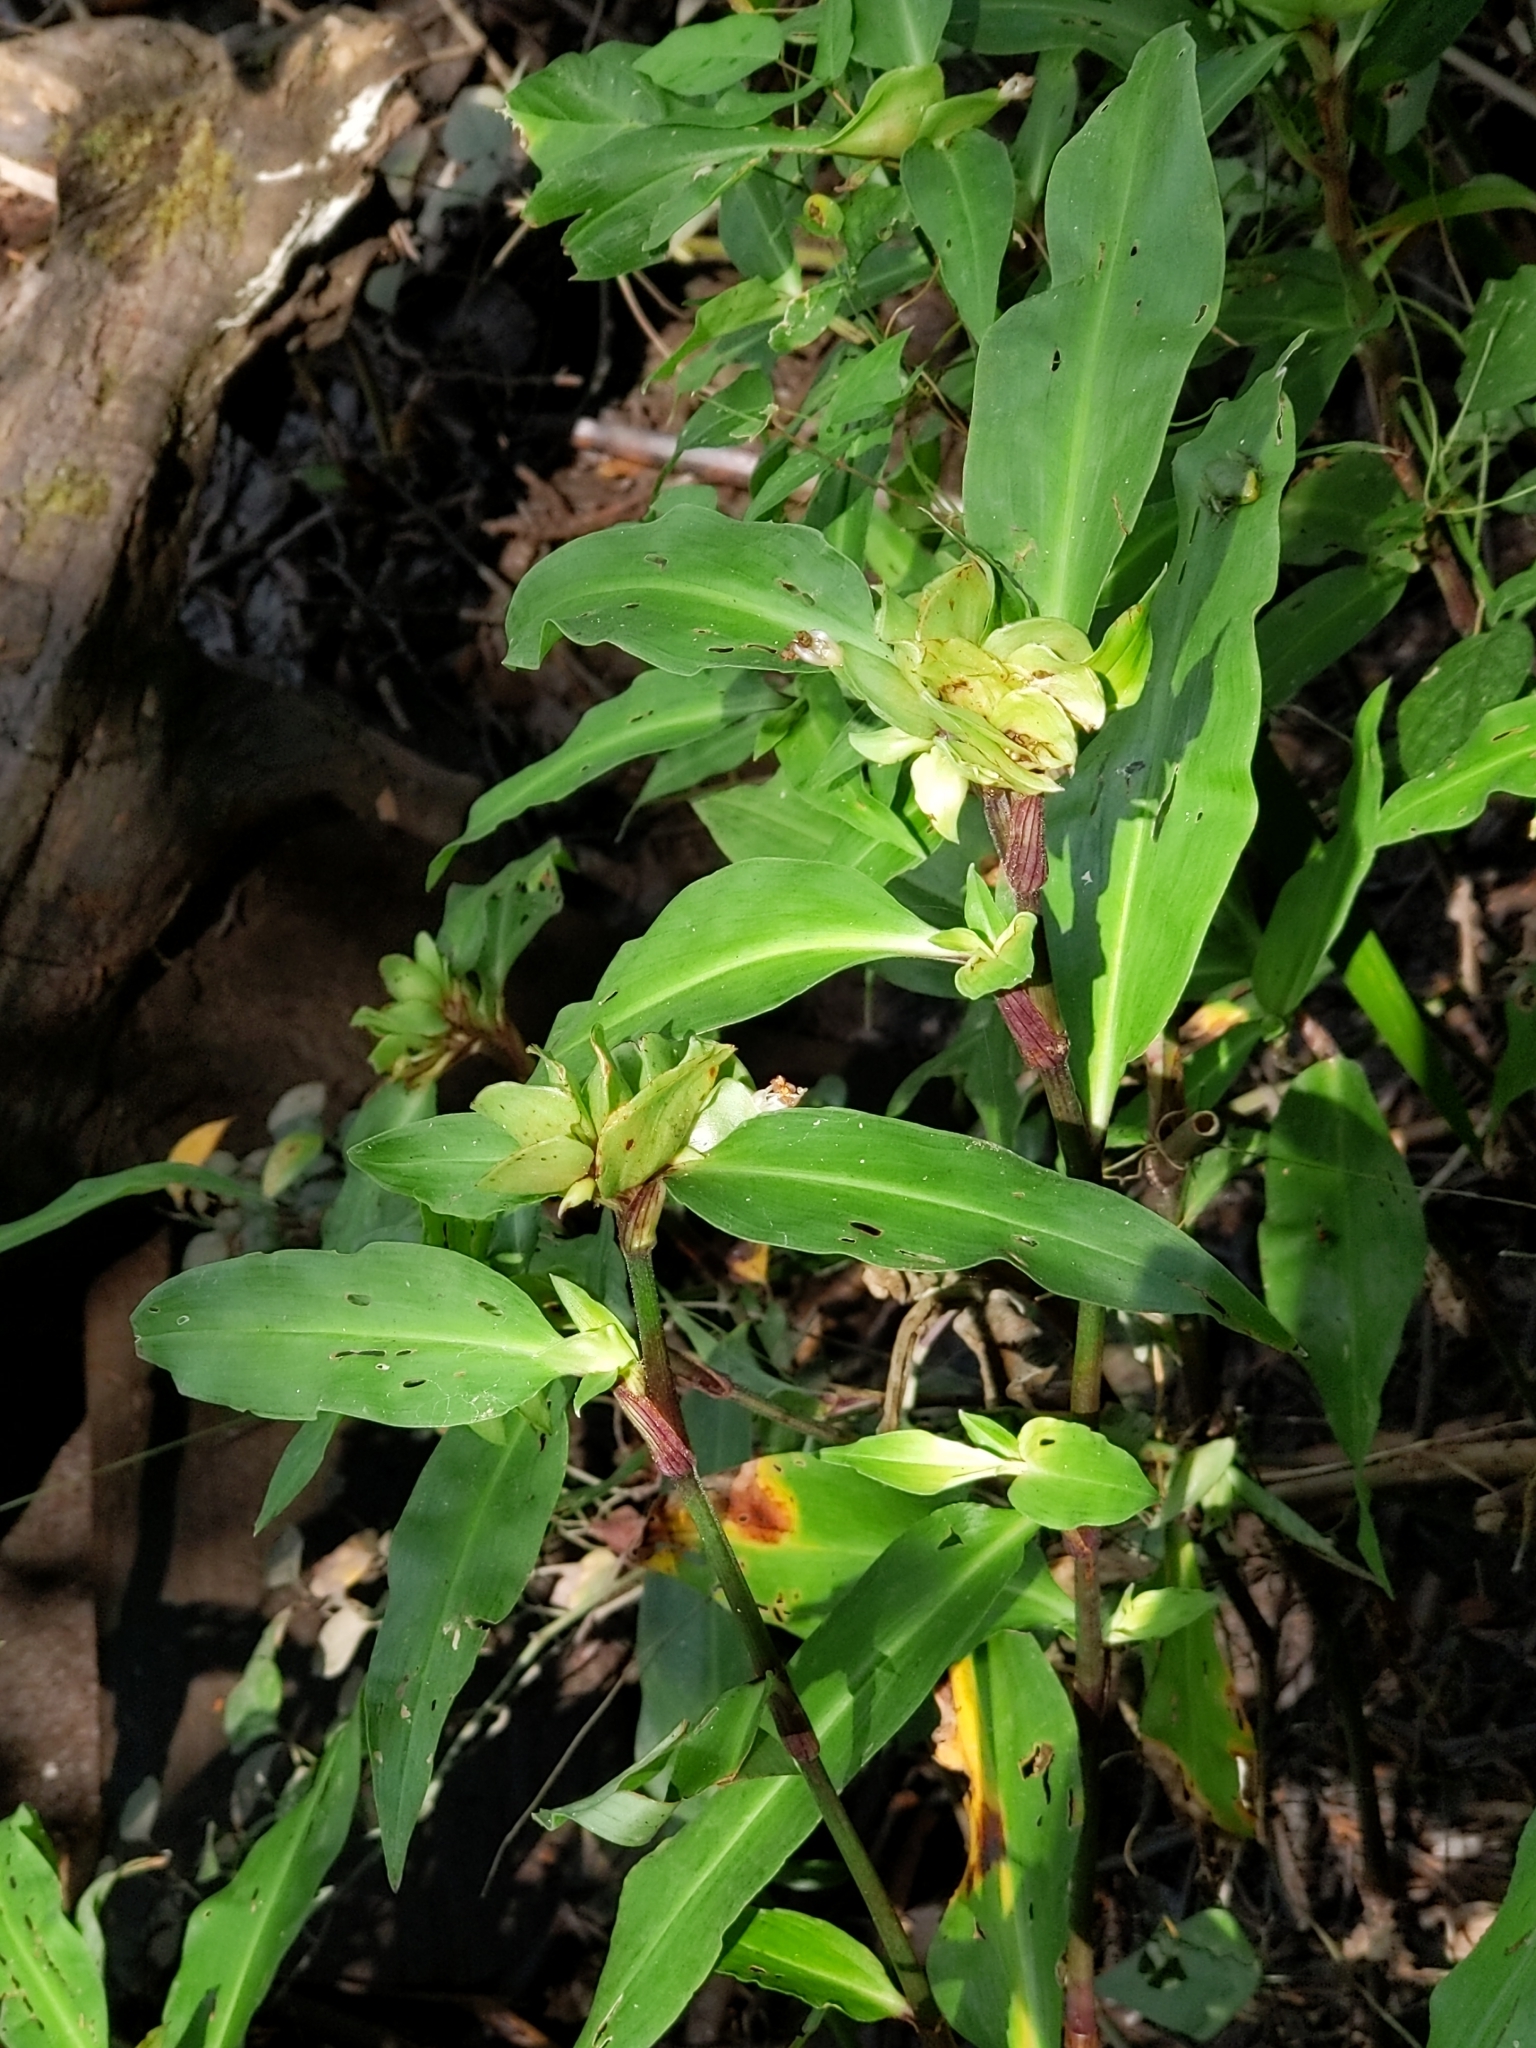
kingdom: Plantae
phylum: Tracheophyta
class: Liliopsida
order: Commelinales
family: Commelinaceae
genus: Commelina
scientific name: Commelina virginica
